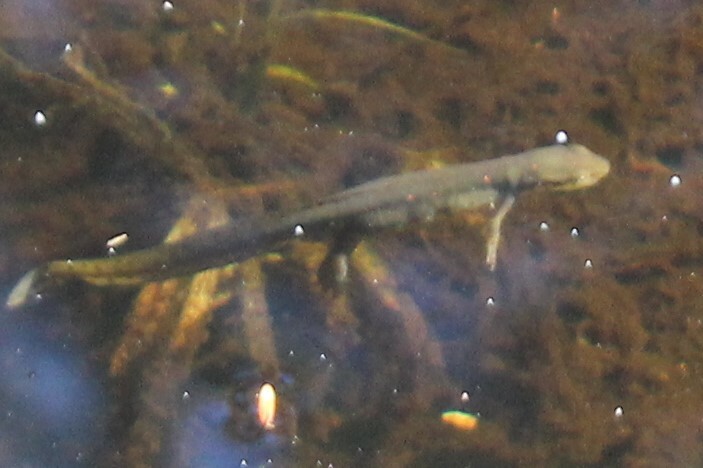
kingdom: Animalia
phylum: Chordata
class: Amphibia
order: Caudata
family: Salamandridae
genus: Notophthalmus
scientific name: Notophthalmus viridescens
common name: Eastern newt
